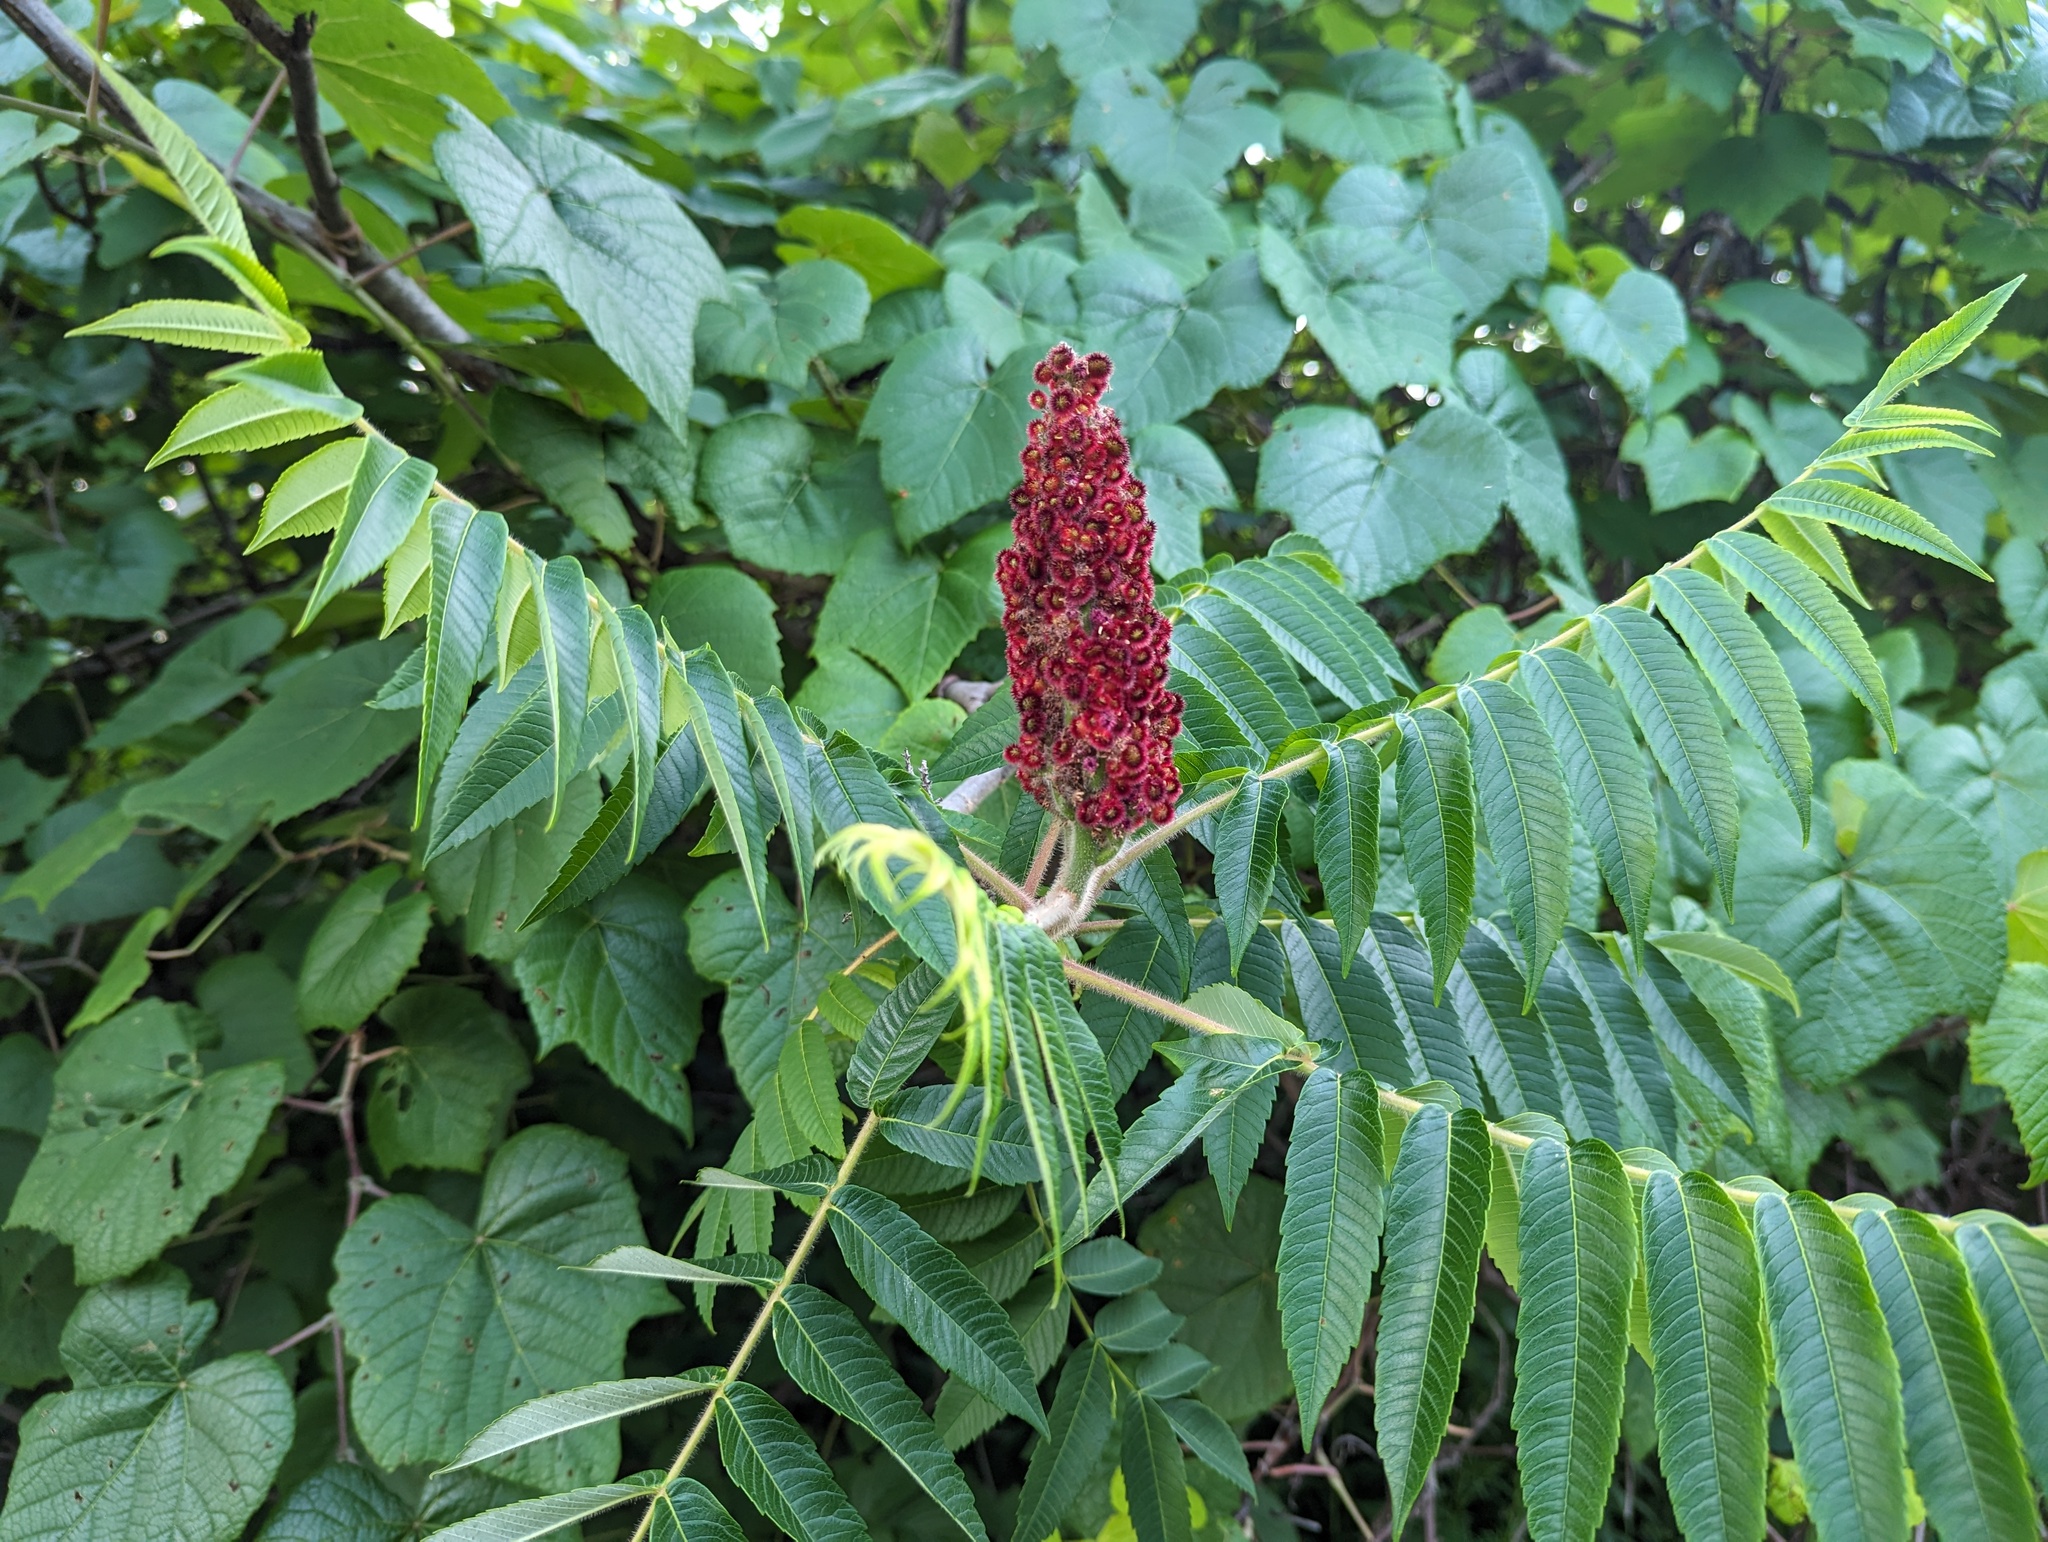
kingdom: Plantae
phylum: Tracheophyta
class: Magnoliopsida
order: Sapindales
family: Anacardiaceae
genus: Rhus
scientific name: Rhus typhina
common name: Staghorn sumac
